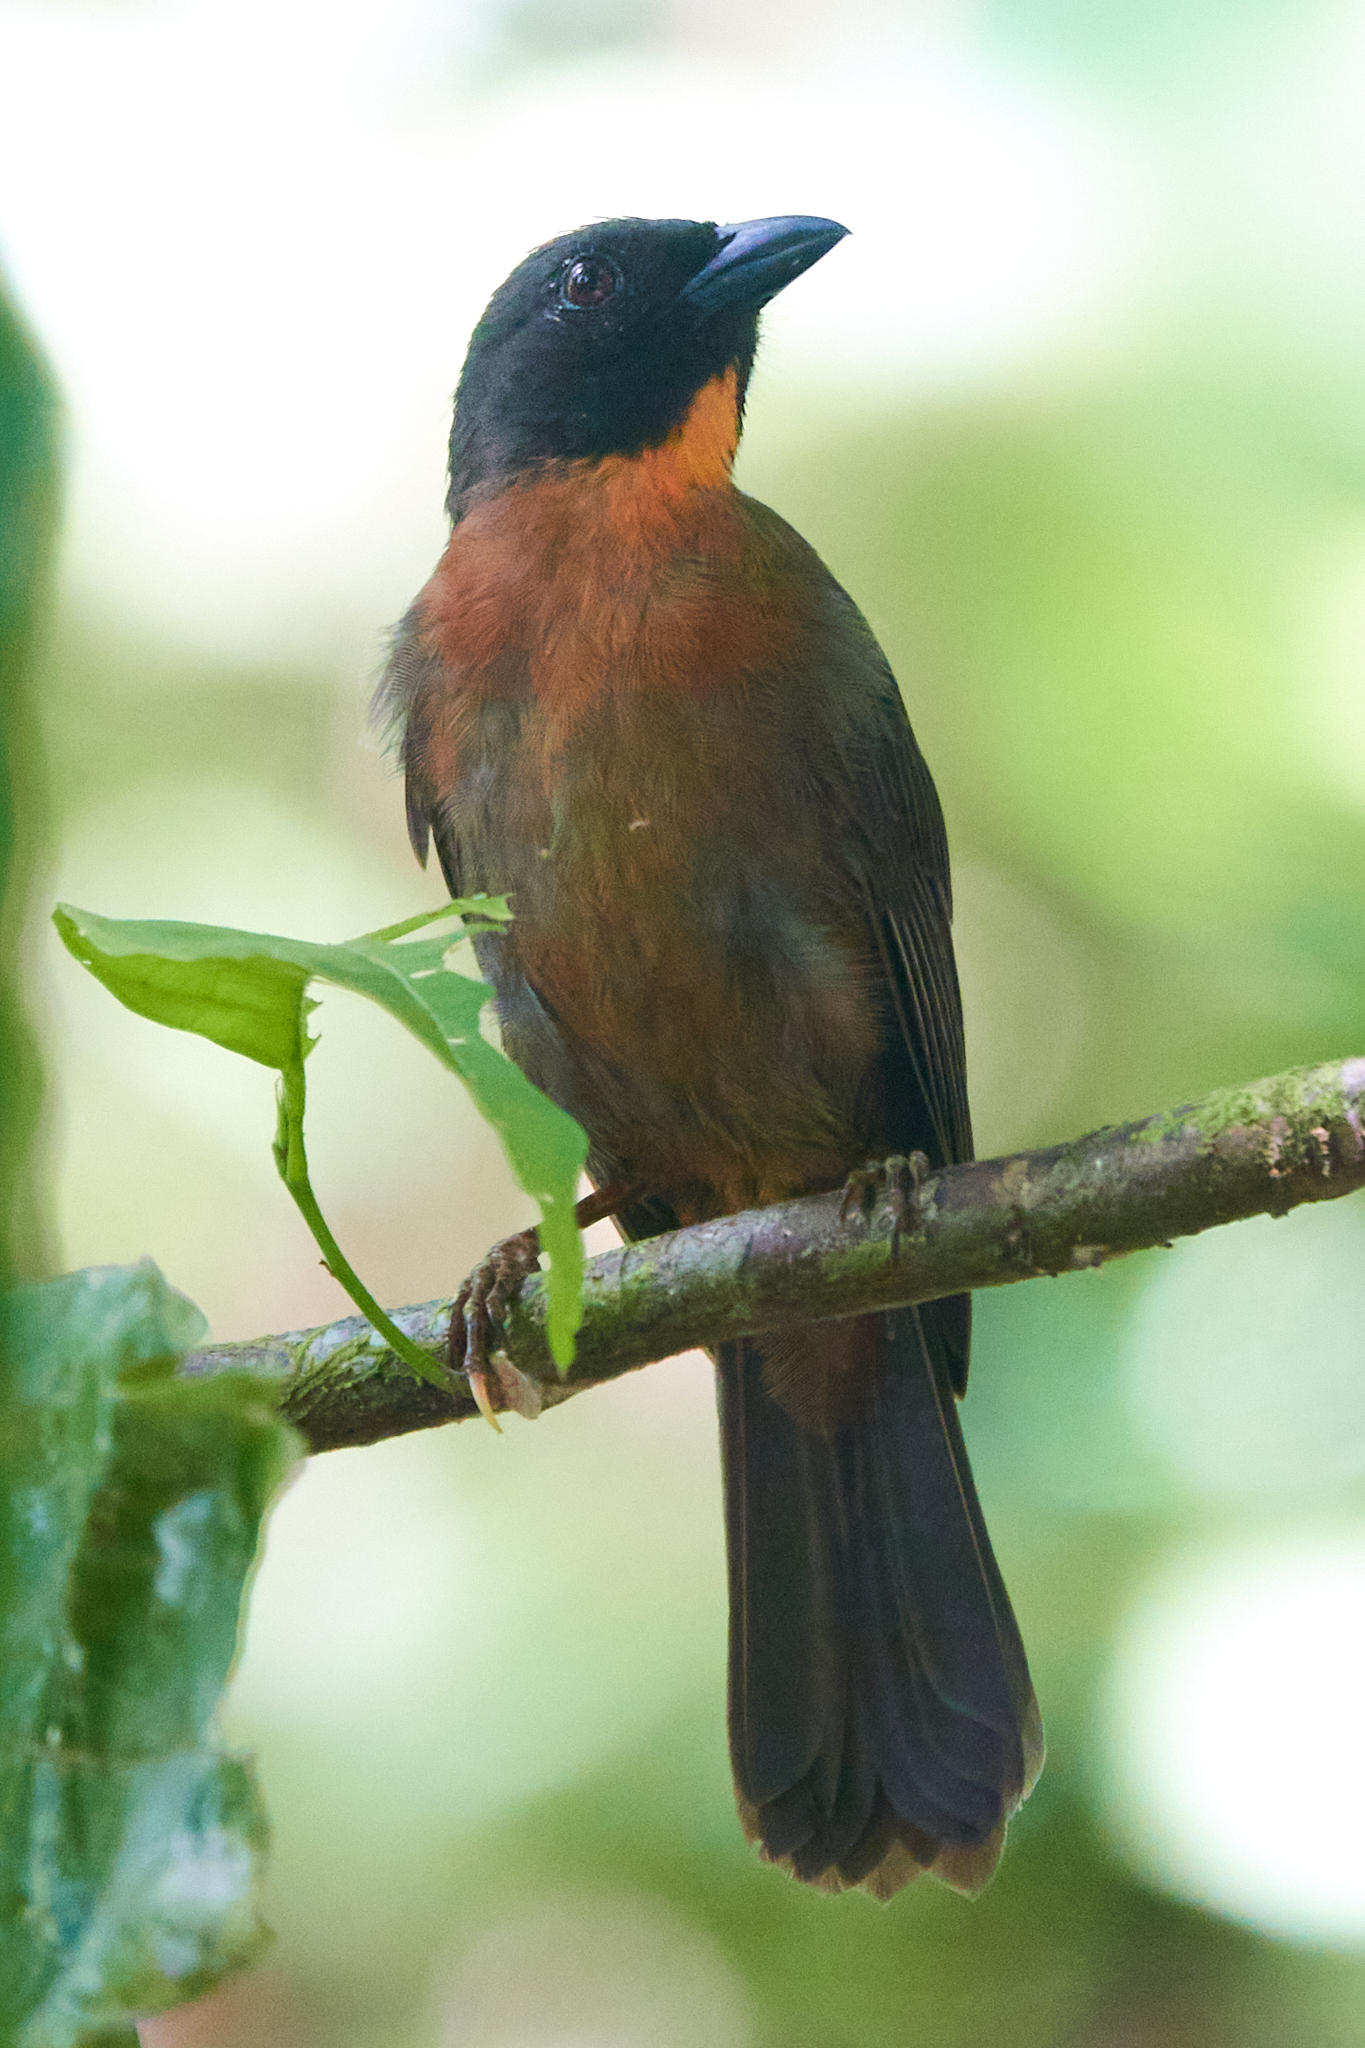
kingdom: Animalia
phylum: Chordata
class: Aves
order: Passeriformes
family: Cardinalidae
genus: Habia
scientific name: Habia atrimaxillaris
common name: Black-cheeked ant-tanager
